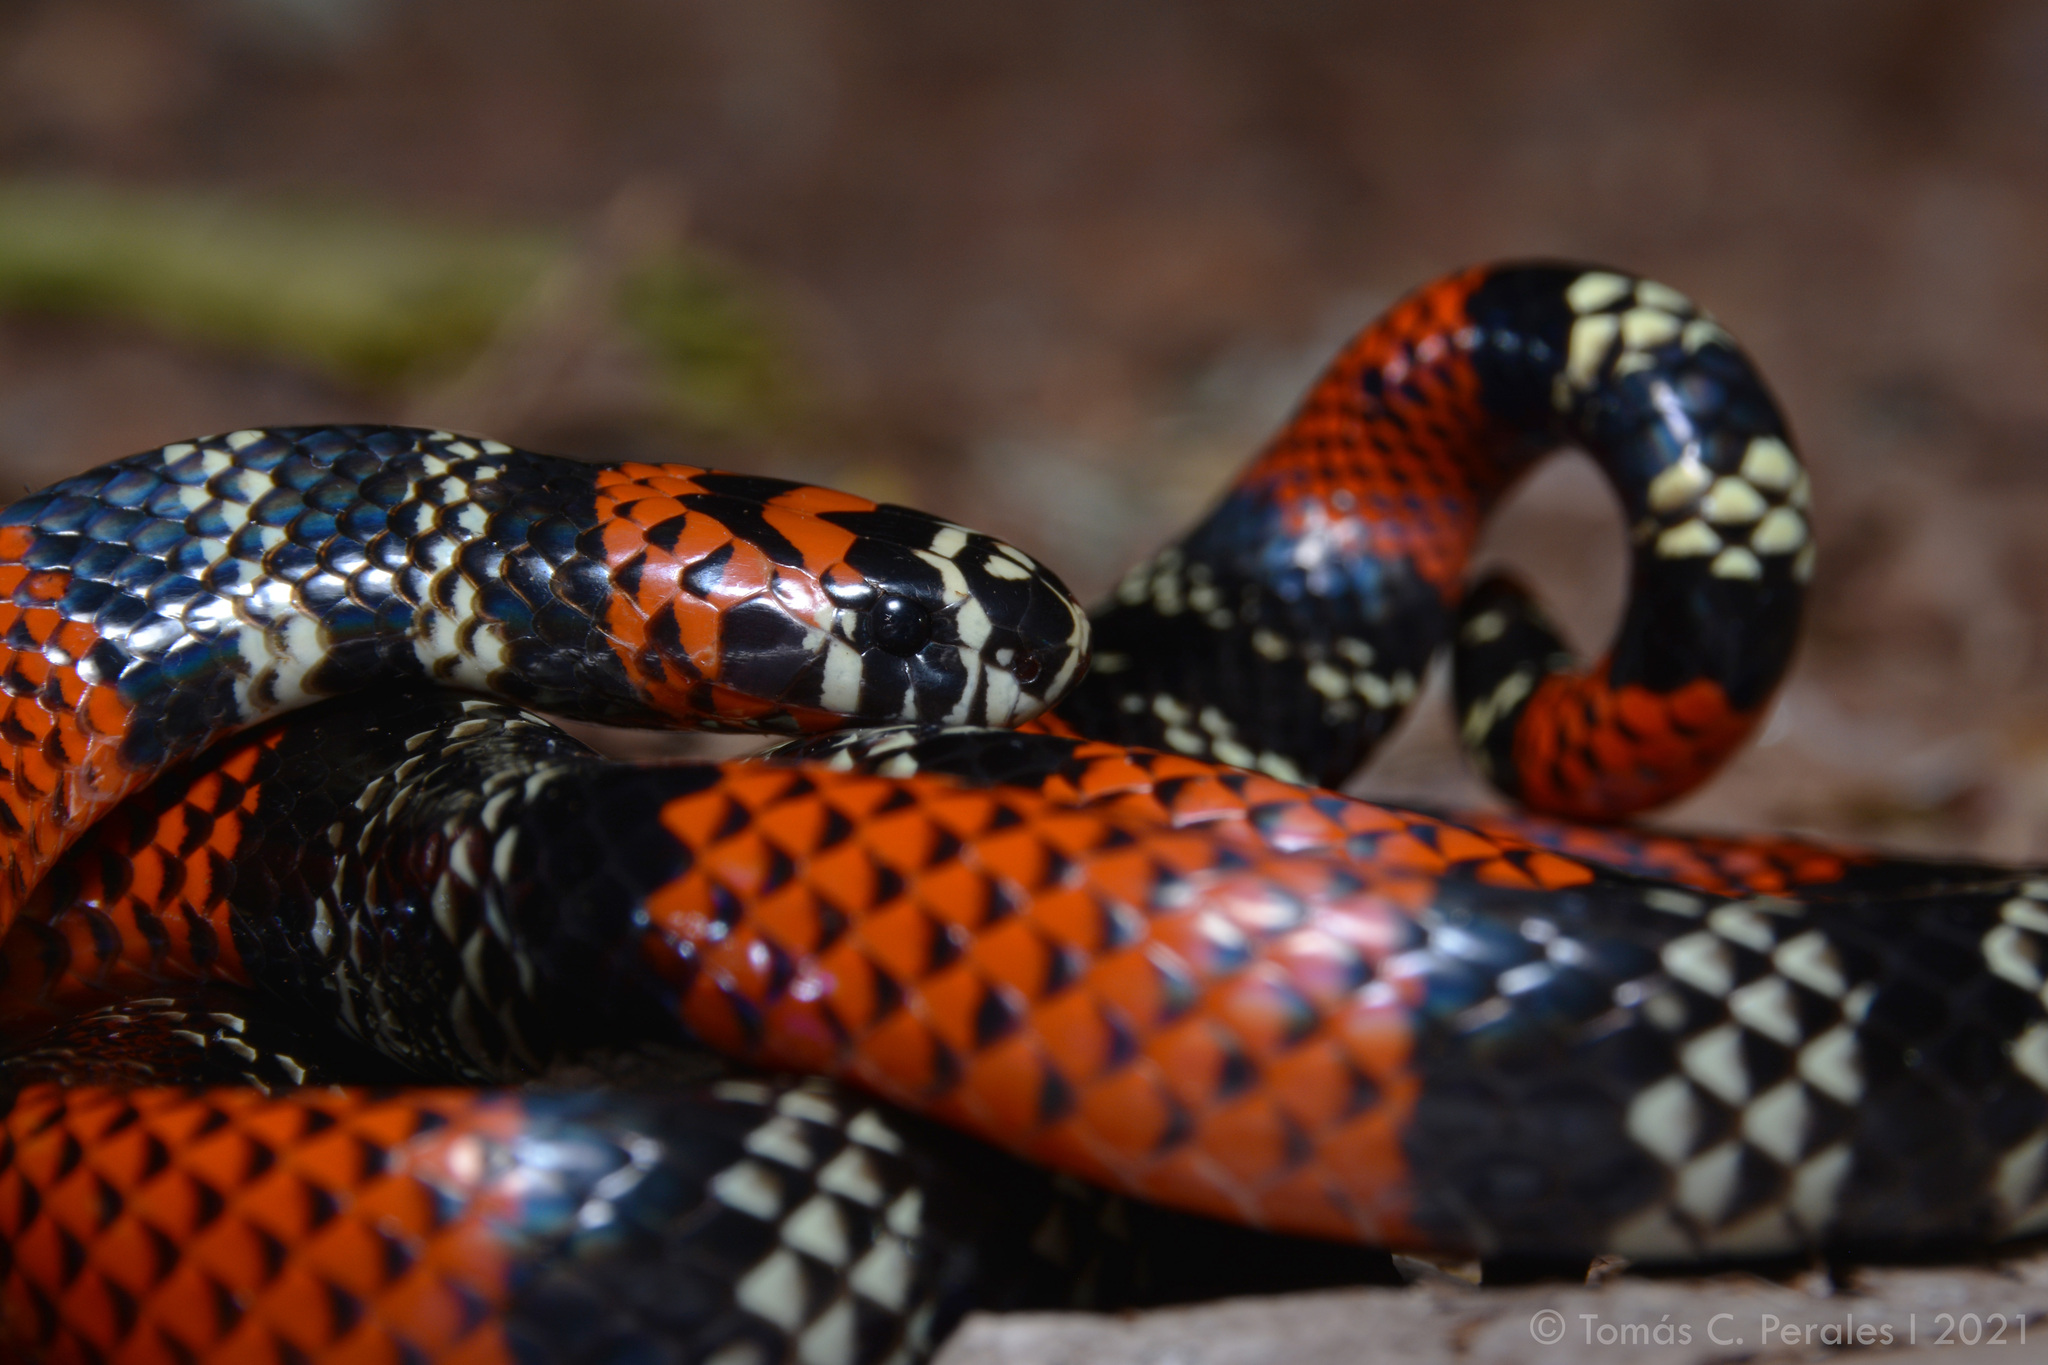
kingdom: Animalia
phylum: Chordata
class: Squamata
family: Elapidae
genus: Micrurus
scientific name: Micrurus altirostris
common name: Uruguayan coral snake
